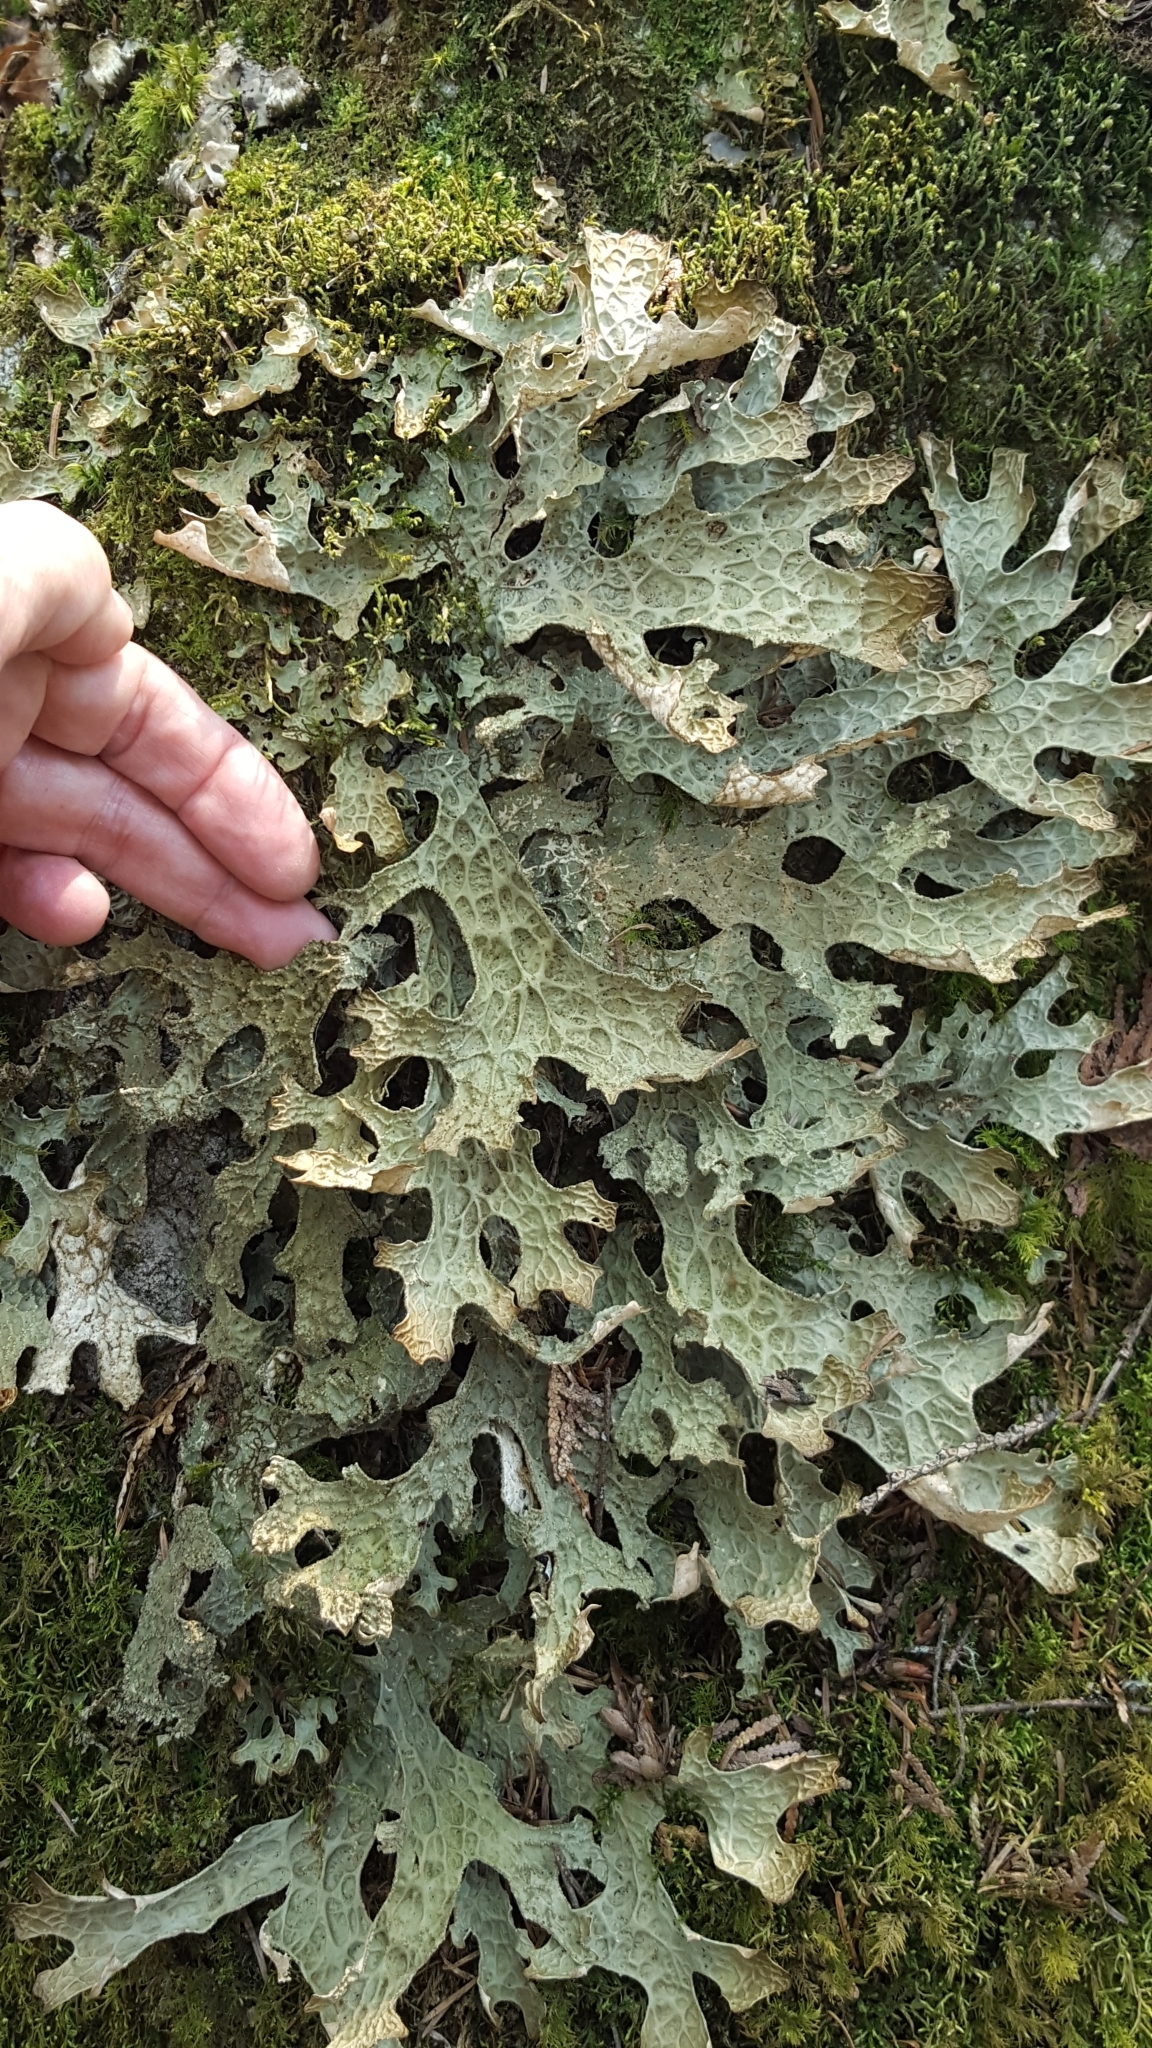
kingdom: Fungi
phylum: Ascomycota
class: Lecanoromycetes
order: Peltigerales
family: Lobariaceae
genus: Lobaria
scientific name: Lobaria pulmonaria
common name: Lungwort
